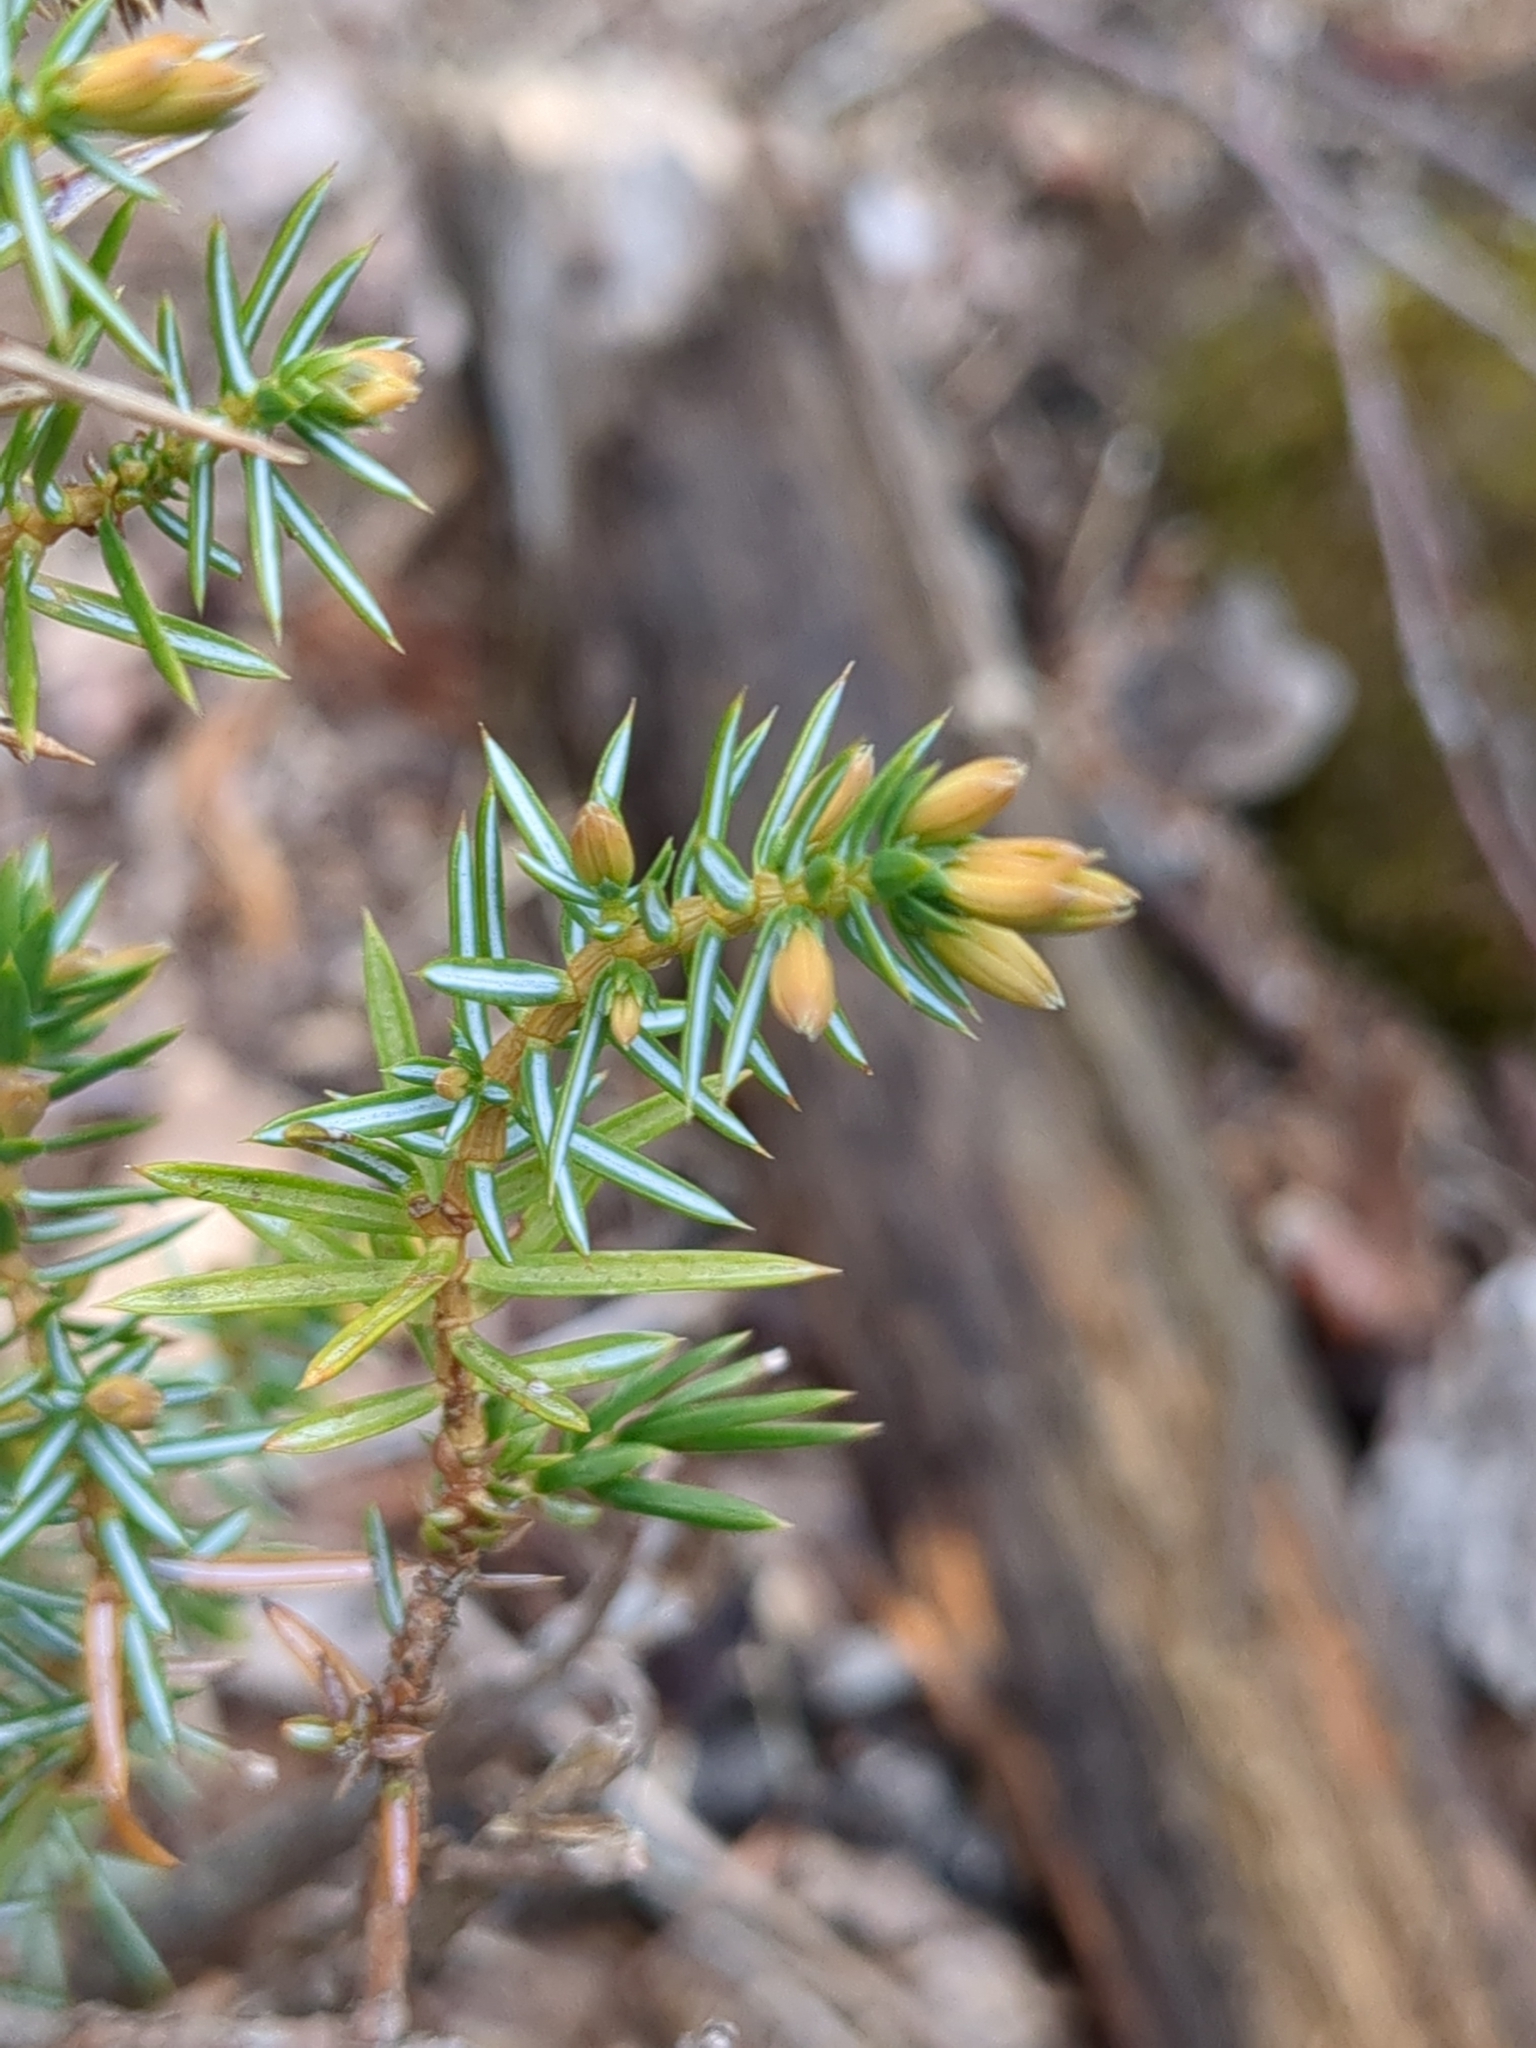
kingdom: Plantae
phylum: Tracheophyta
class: Pinopsida
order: Pinales
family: Cupressaceae
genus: Juniperus
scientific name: Juniperus communis
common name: Common juniper
